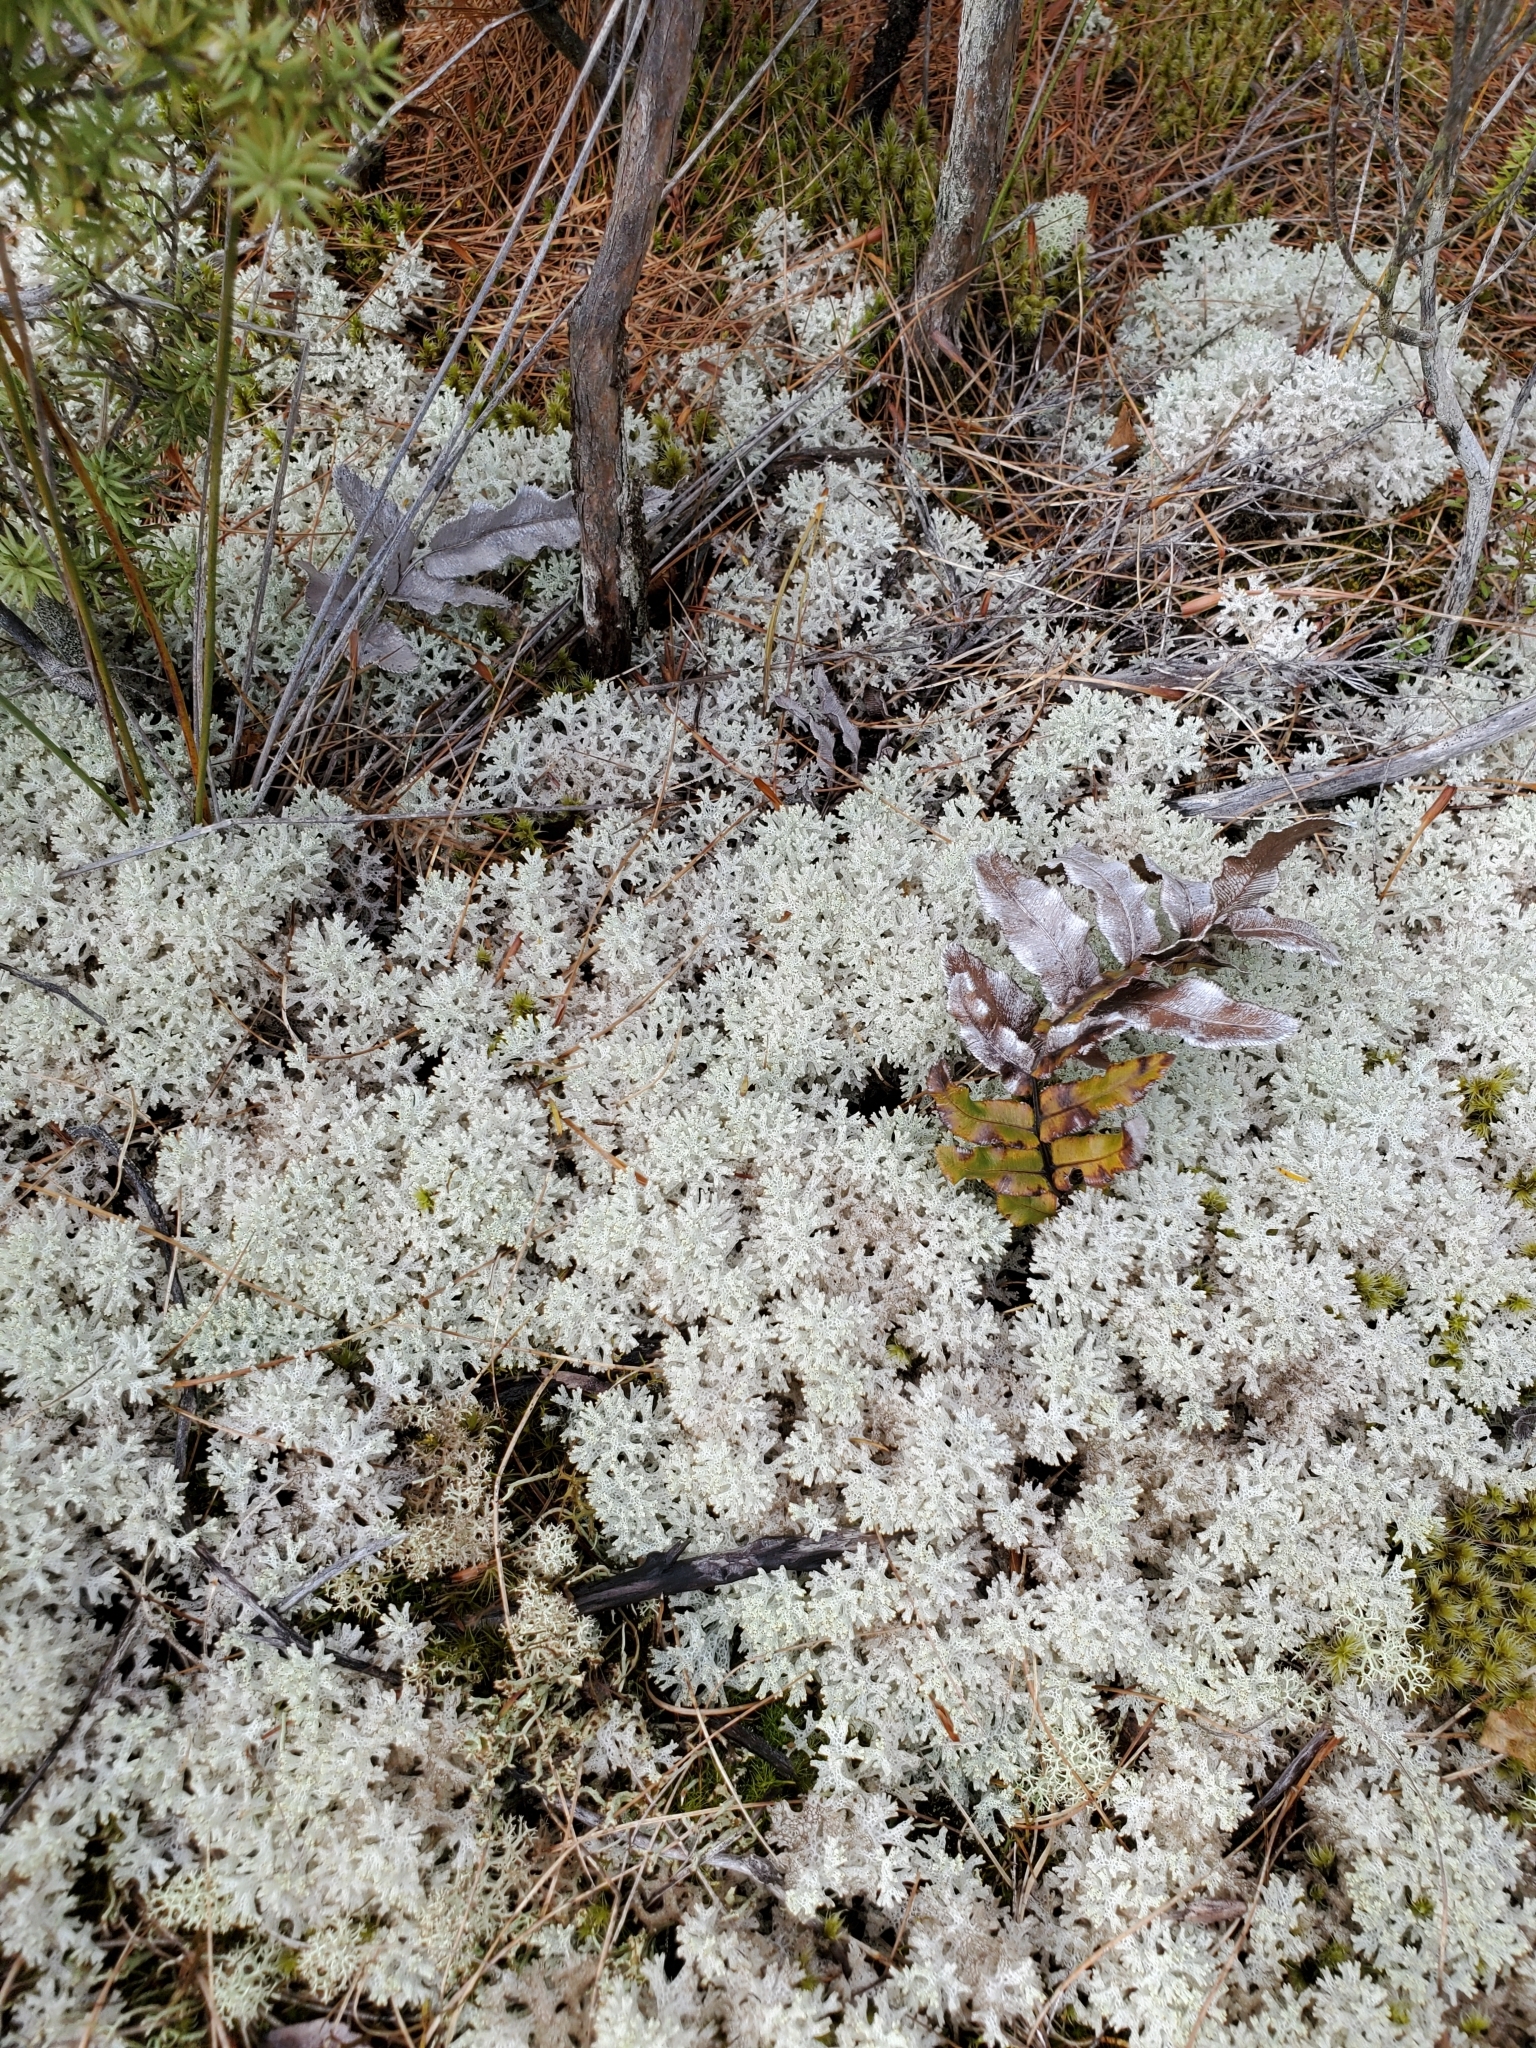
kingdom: Fungi
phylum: Ascomycota
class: Lecanoromycetes
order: Lecanorales
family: Cladoniaceae
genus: Pulchrocladia
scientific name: Pulchrocladia retipora
